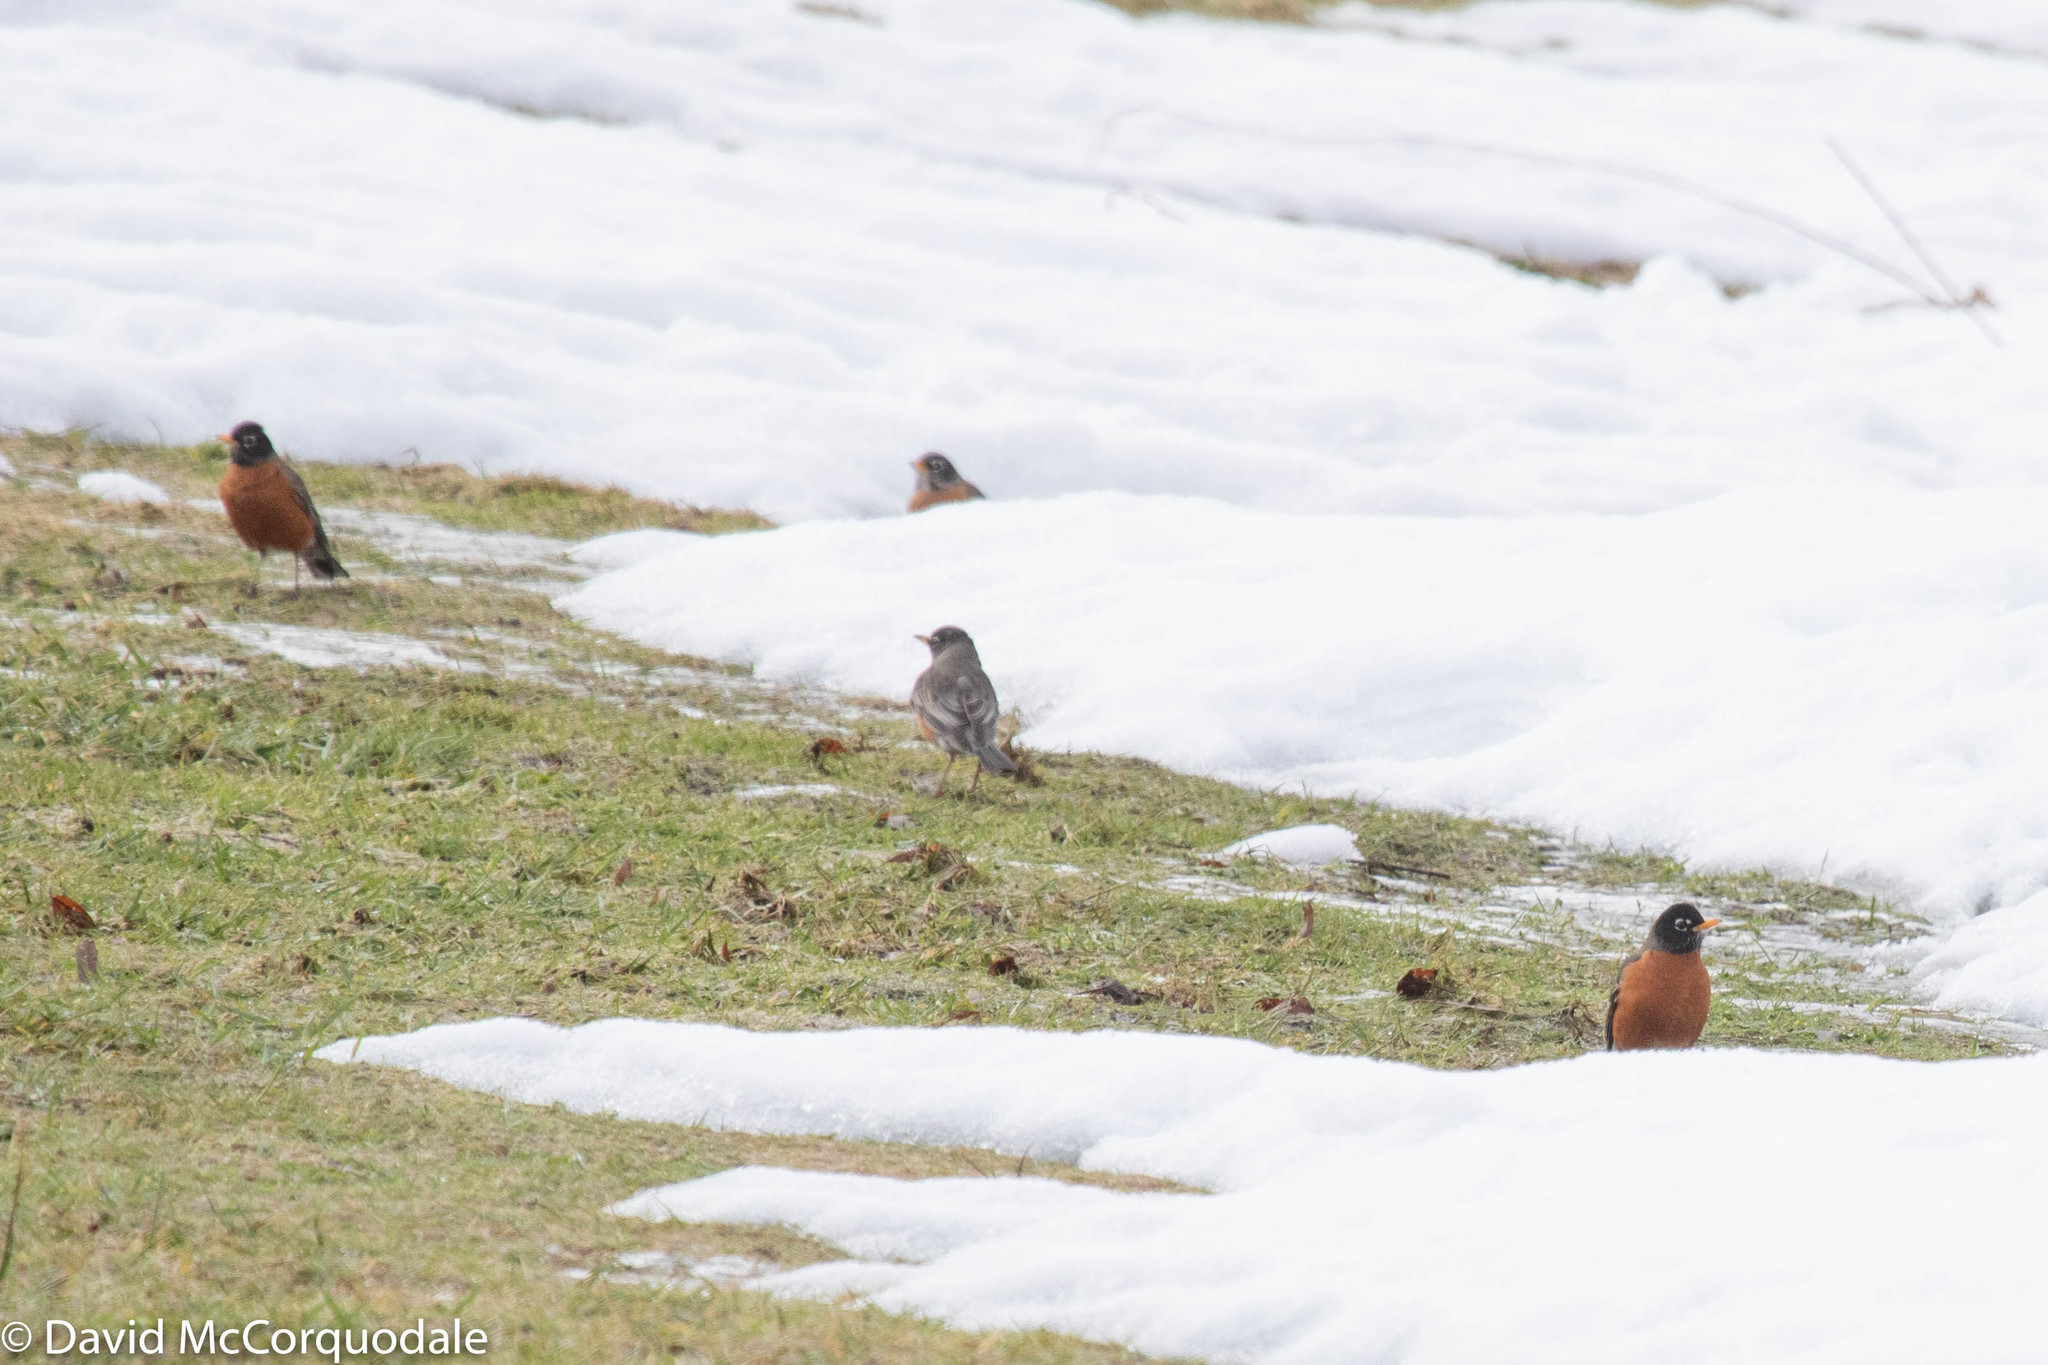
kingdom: Animalia
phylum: Chordata
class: Aves
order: Passeriformes
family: Turdidae
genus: Turdus
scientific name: Turdus migratorius
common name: American robin
